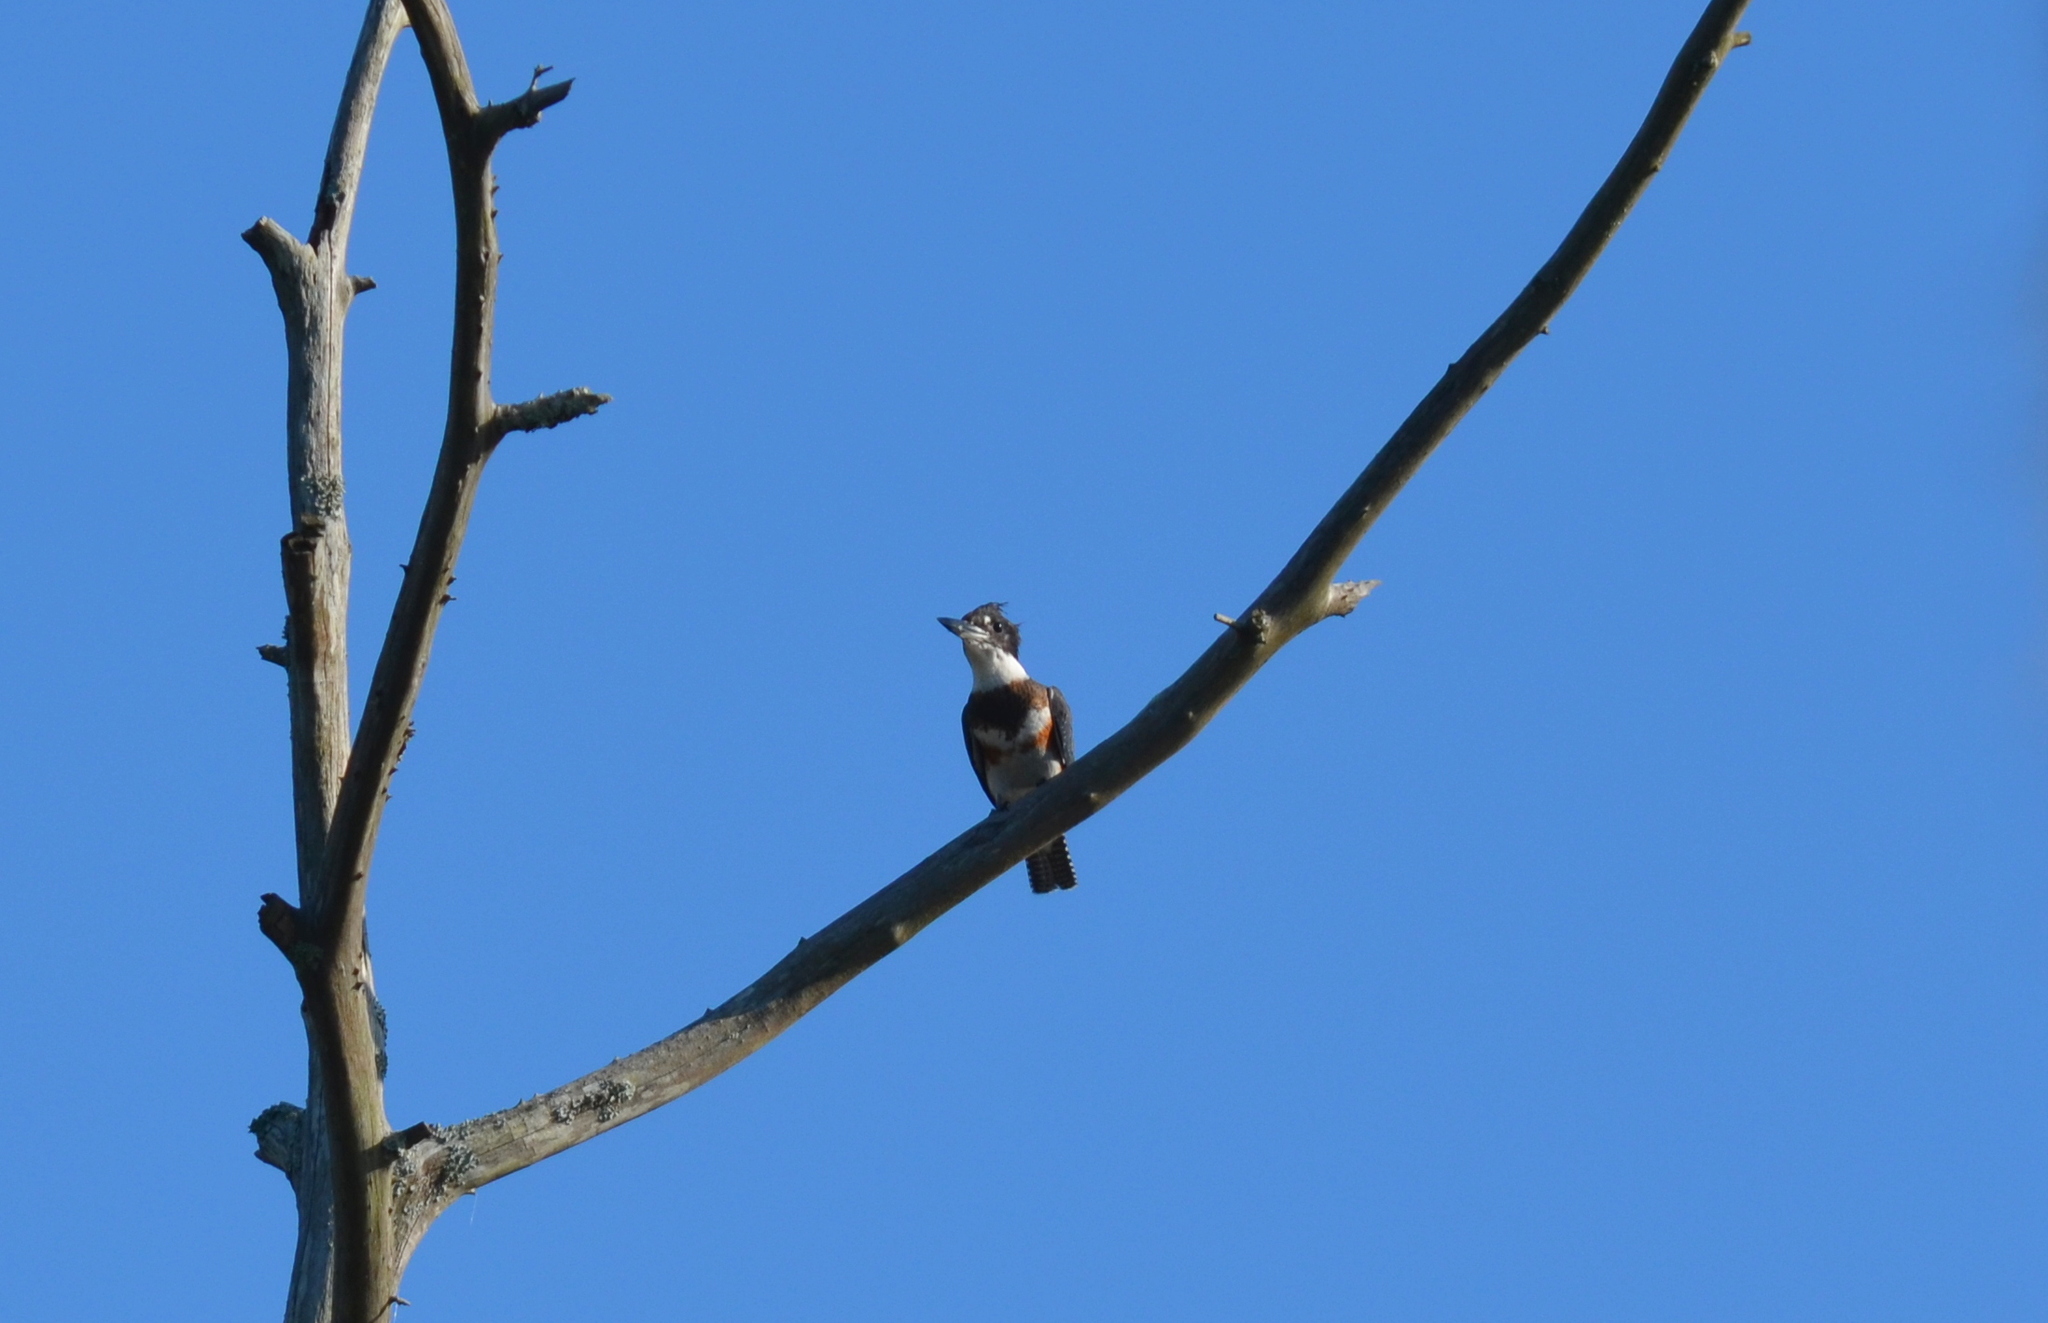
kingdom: Animalia
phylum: Chordata
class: Aves
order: Coraciiformes
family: Alcedinidae
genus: Megaceryle
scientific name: Megaceryle alcyon
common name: Belted kingfisher
